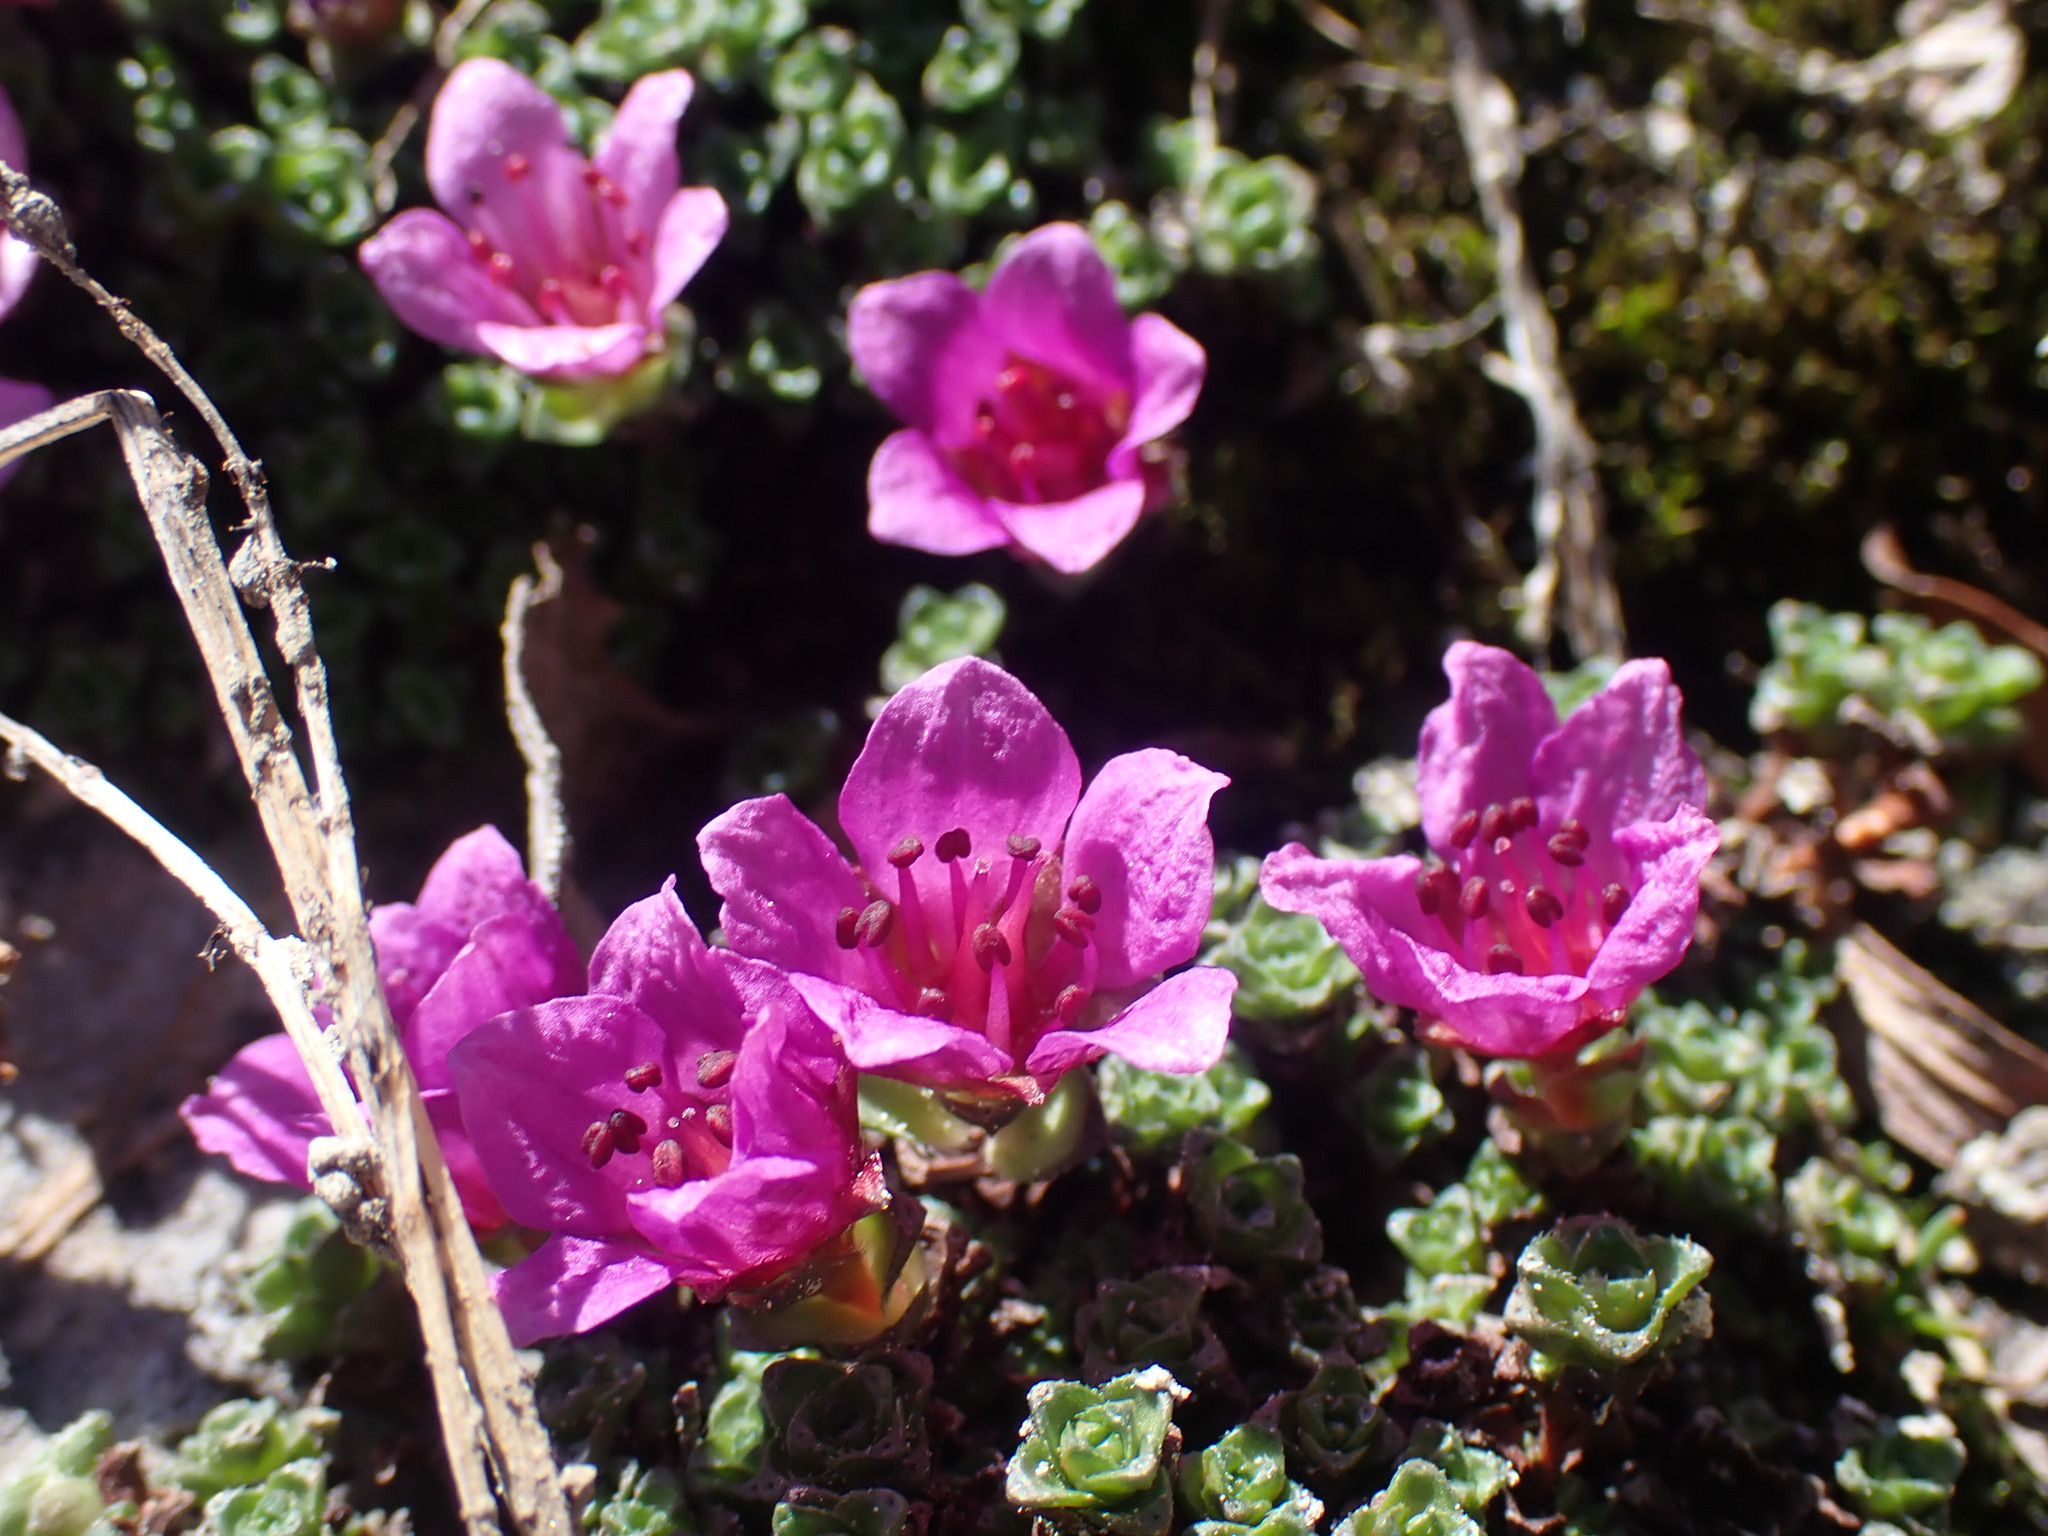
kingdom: Plantae
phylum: Tracheophyta
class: Magnoliopsida
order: Saxifragales
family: Saxifragaceae
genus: Saxifraga
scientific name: Saxifraga oppositifolia
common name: Purple saxifrage
